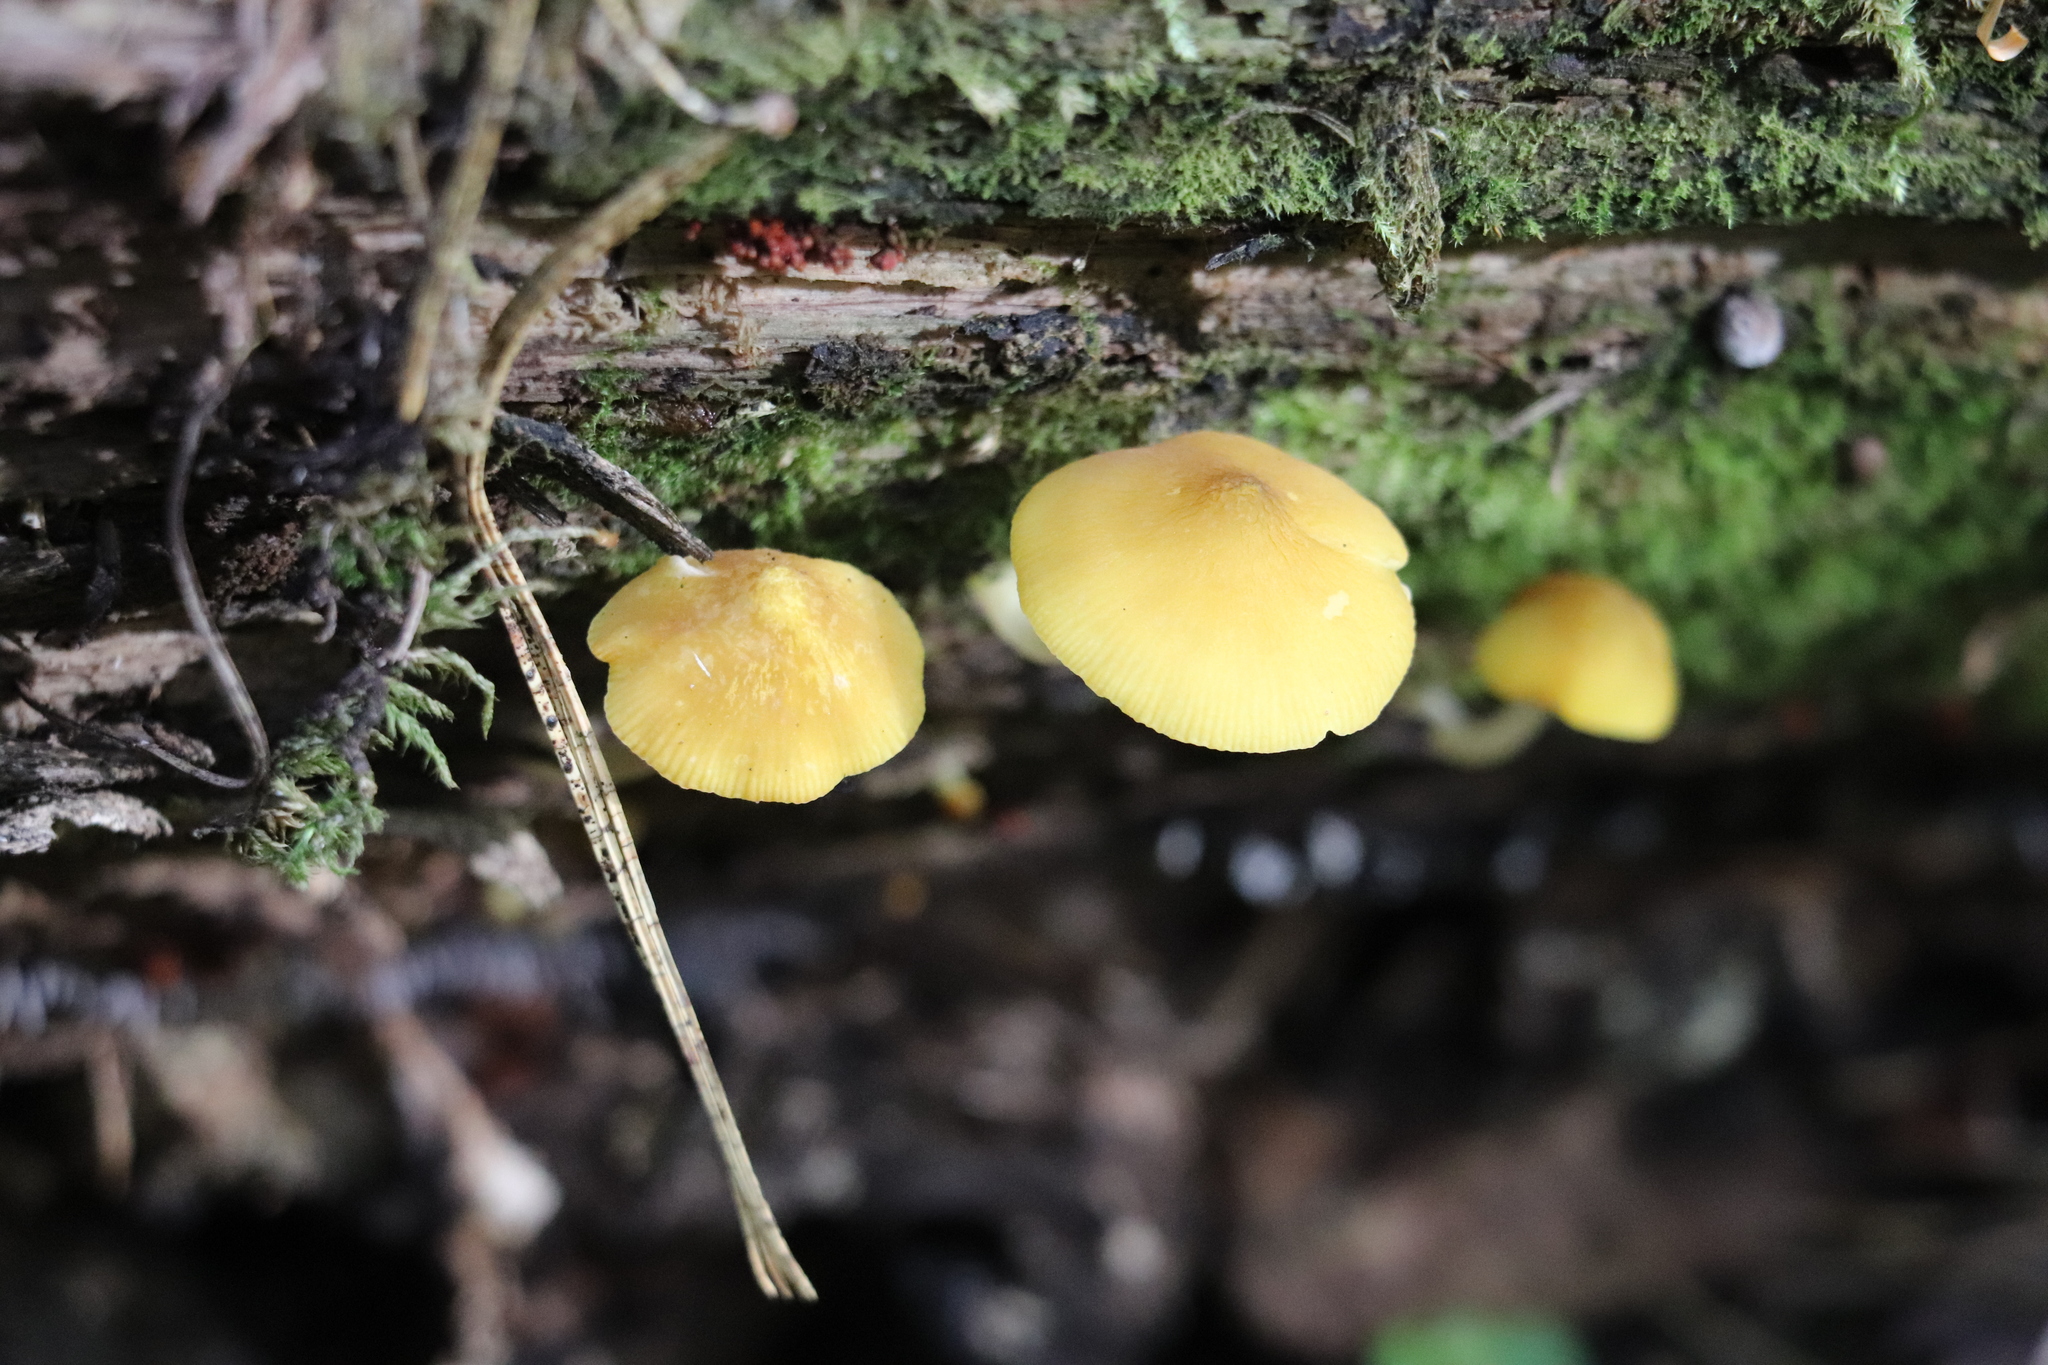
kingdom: Fungi
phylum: Basidiomycota
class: Agaricomycetes
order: Agaricales
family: Pluteaceae
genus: Pluteus
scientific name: Pluteus chrysophaeus
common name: Yellow shield
